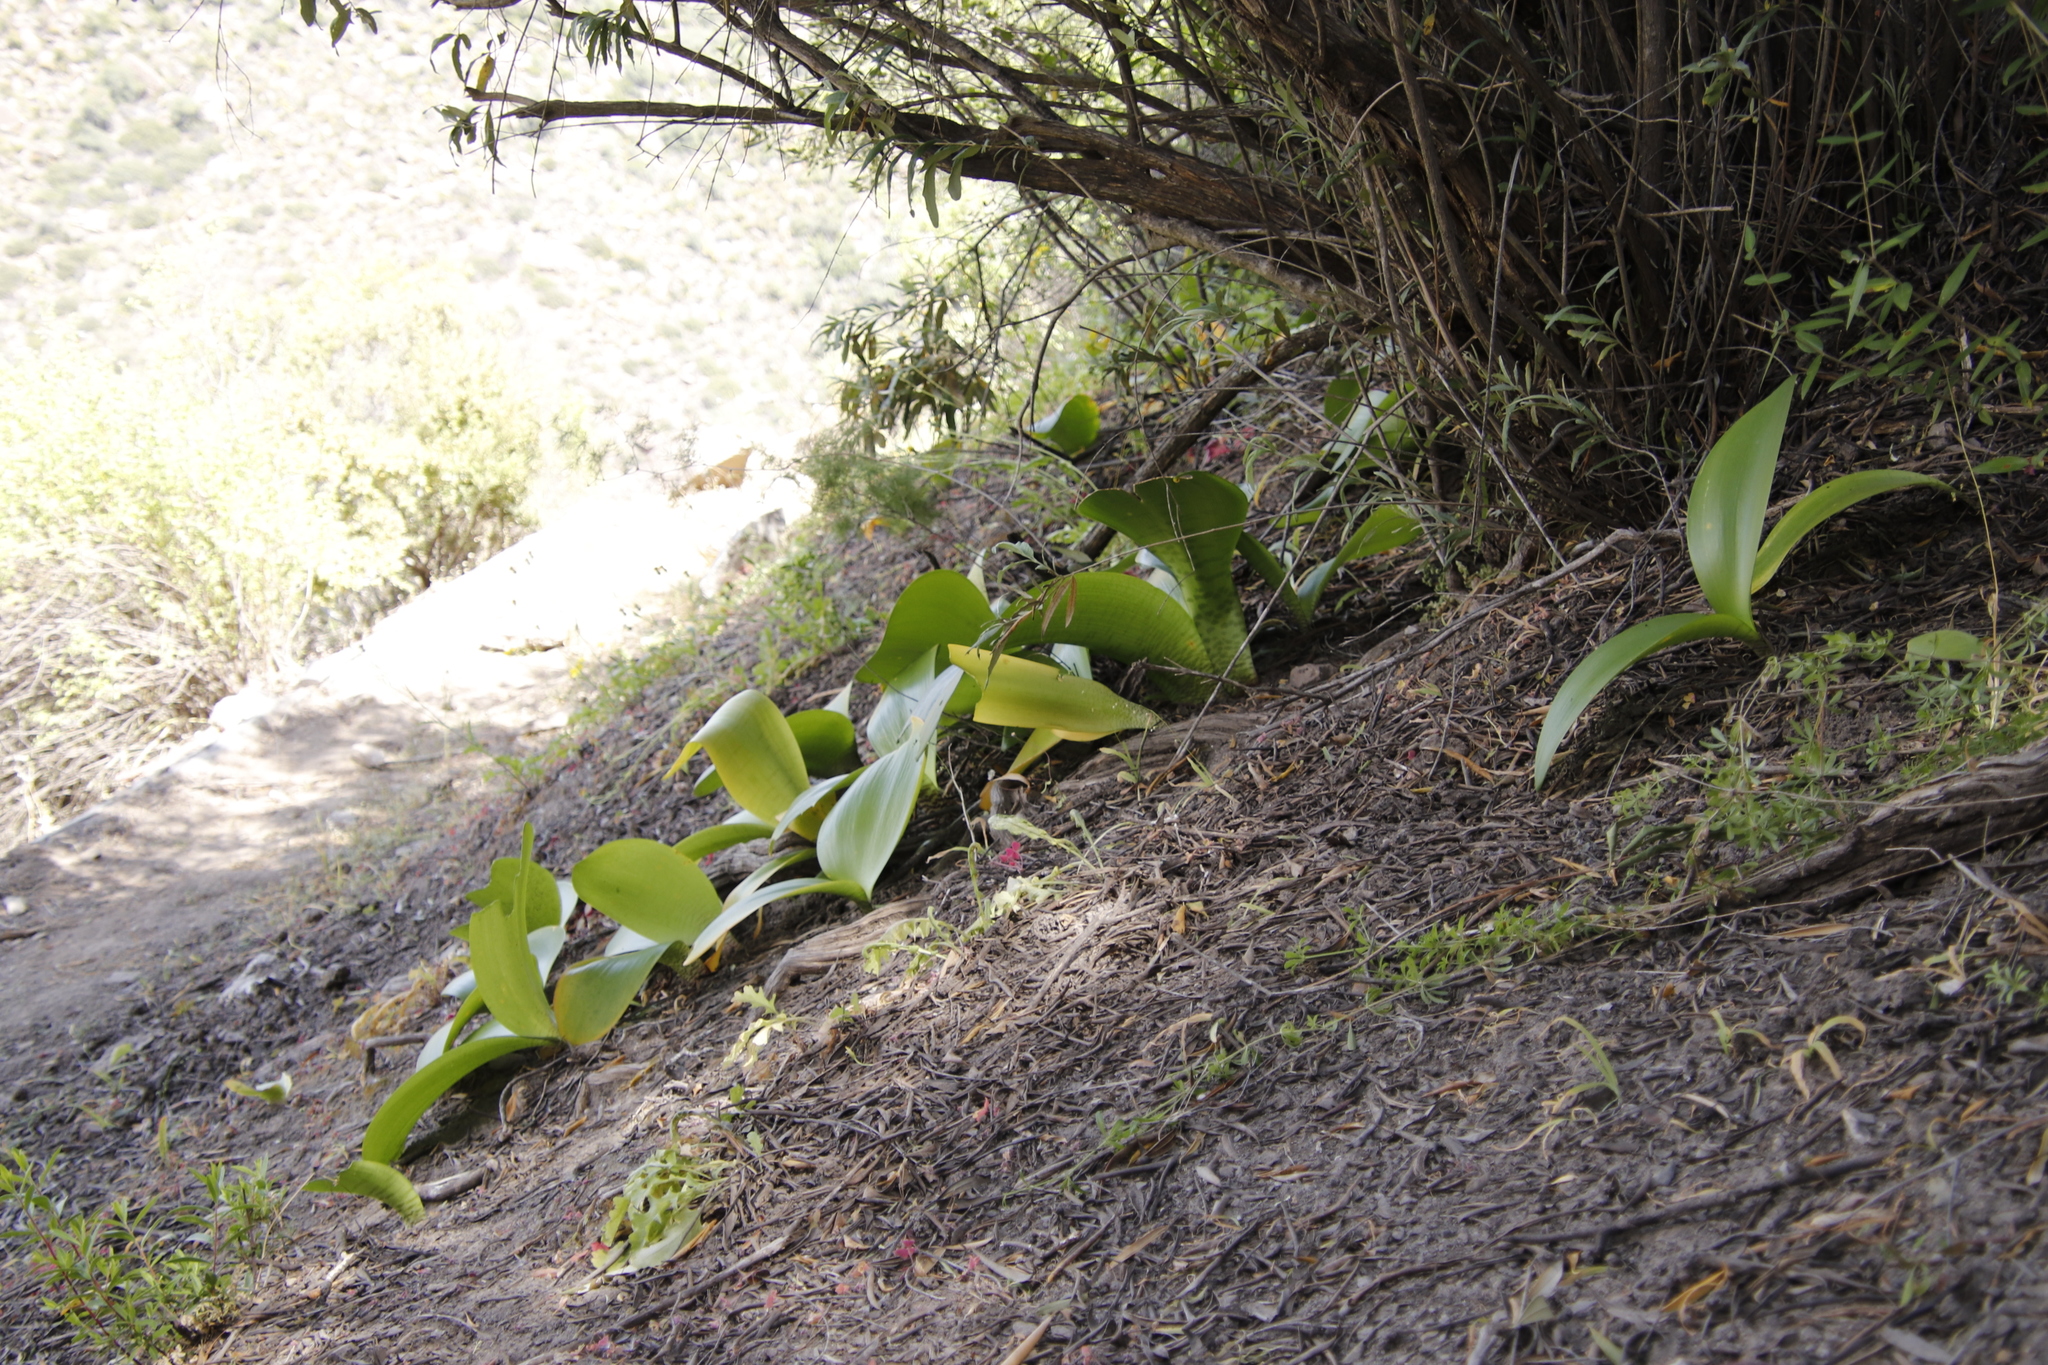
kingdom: Plantae
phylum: Tracheophyta
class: Liliopsida
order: Asparagales
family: Amaryllidaceae
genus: Haemanthus
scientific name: Haemanthus coccineus
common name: Cape-tulip
